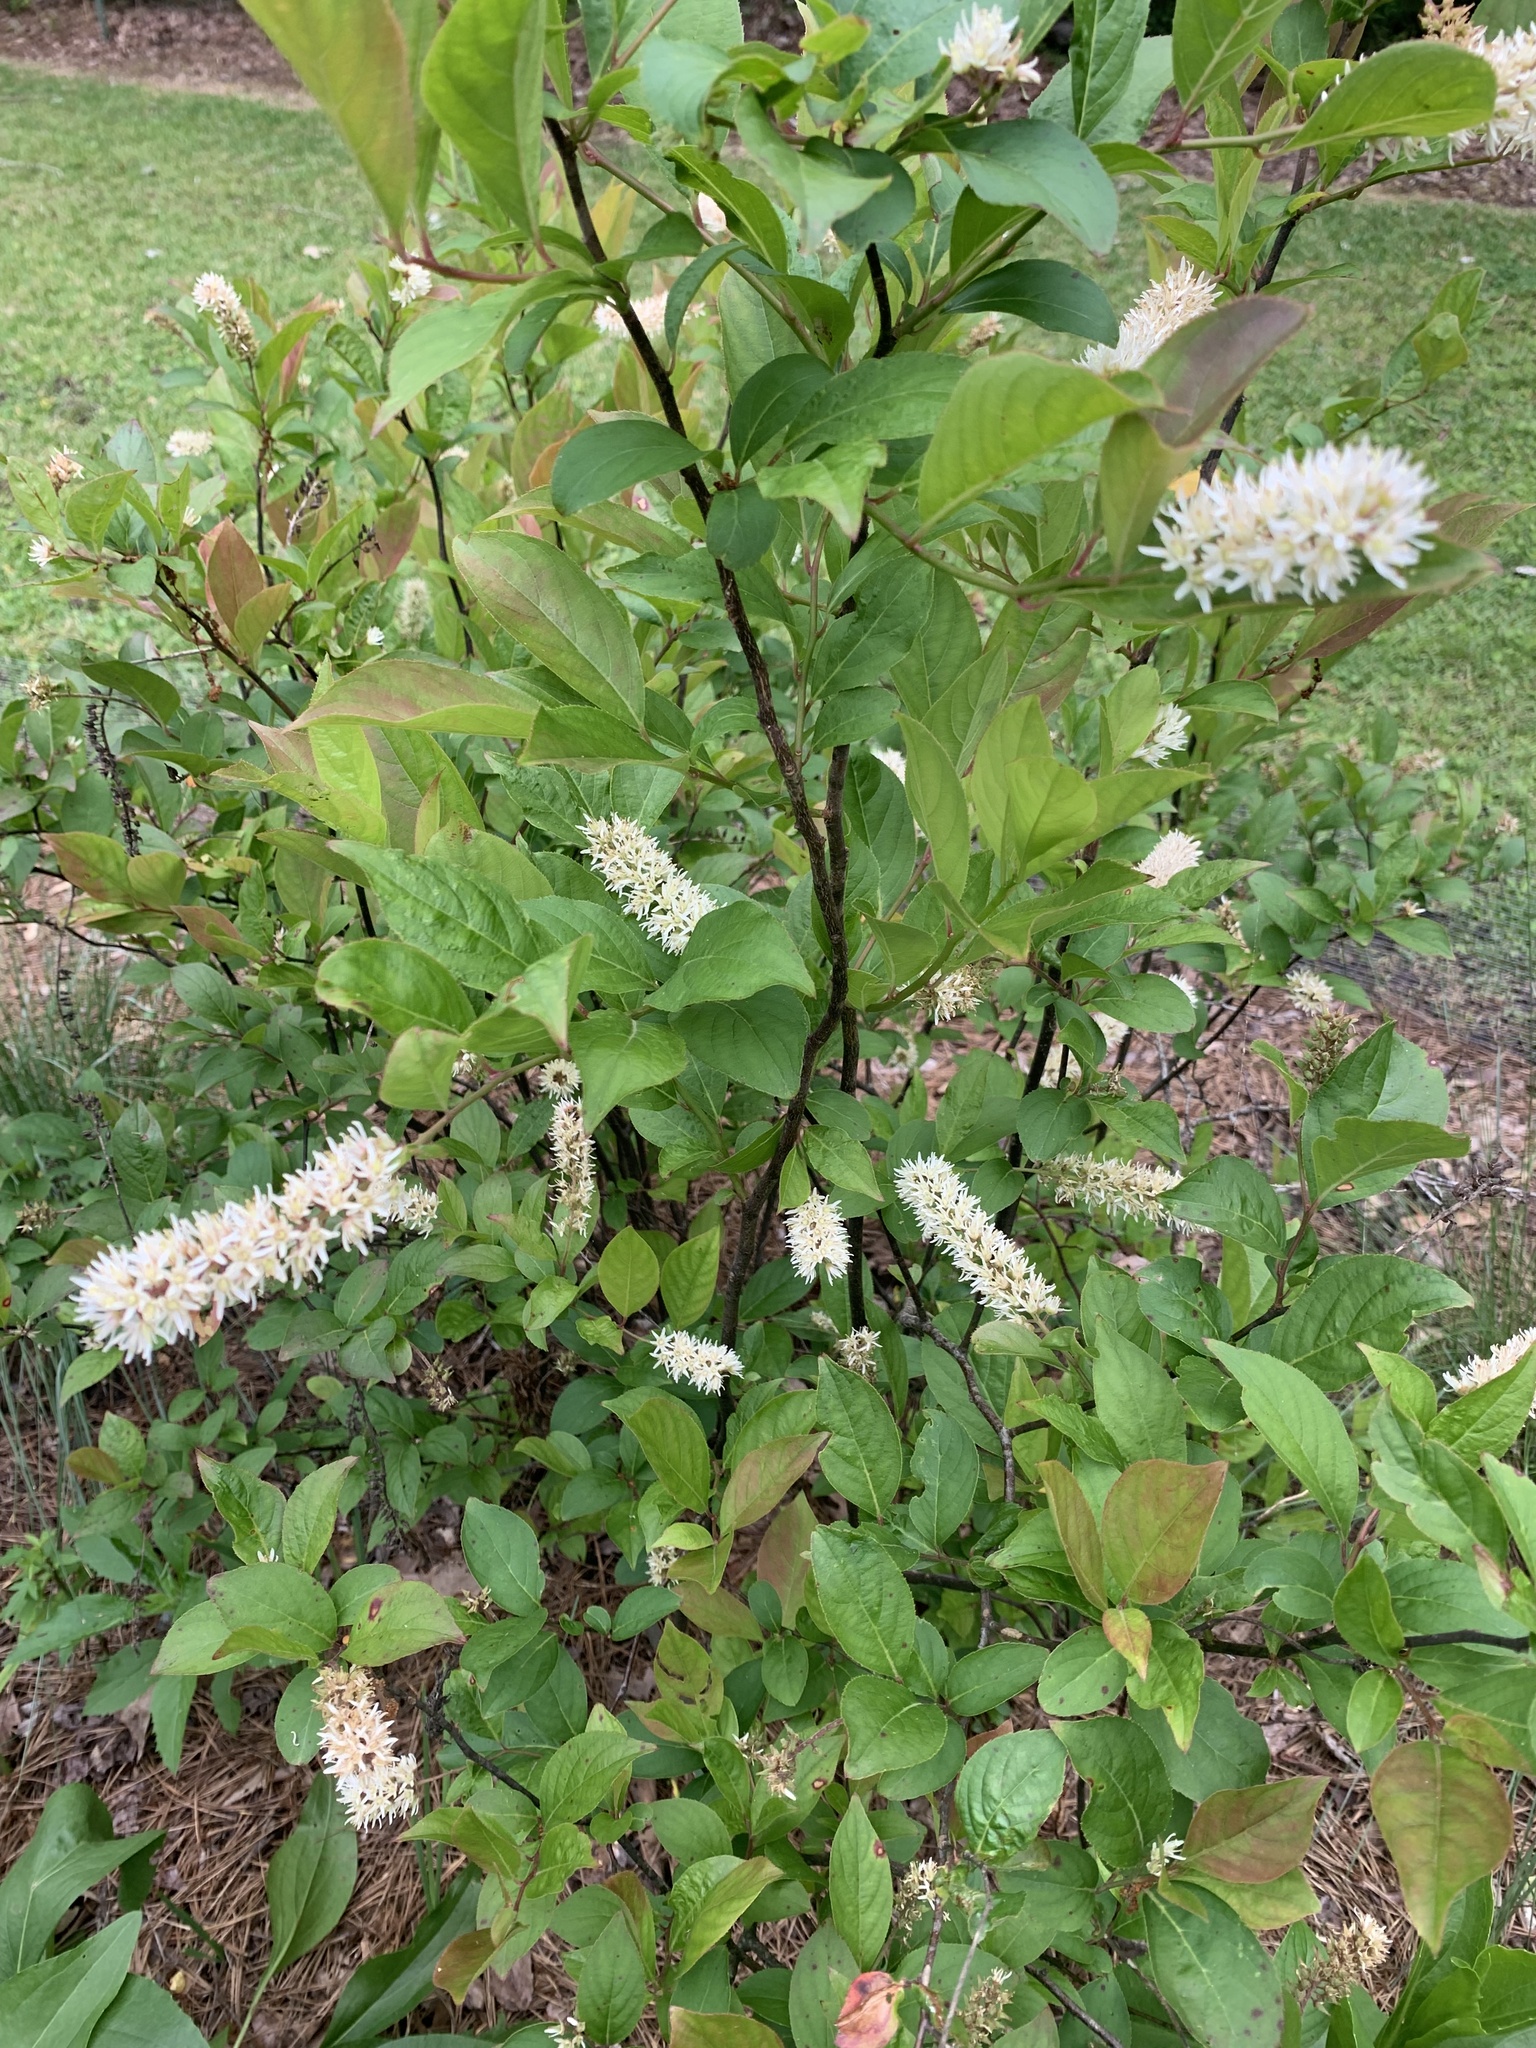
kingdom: Plantae
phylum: Tracheophyta
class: Magnoliopsida
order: Saxifragales
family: Iteaceae
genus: Itea
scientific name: Itea virginica
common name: Sweetspire
